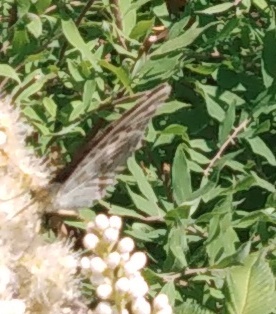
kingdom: Animalia
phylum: Arthropoda
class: Insecta
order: Lepidoptera
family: Nymphalidae
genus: Argynnis
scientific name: Argynnis paphia
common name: Silver-washed fritillary
